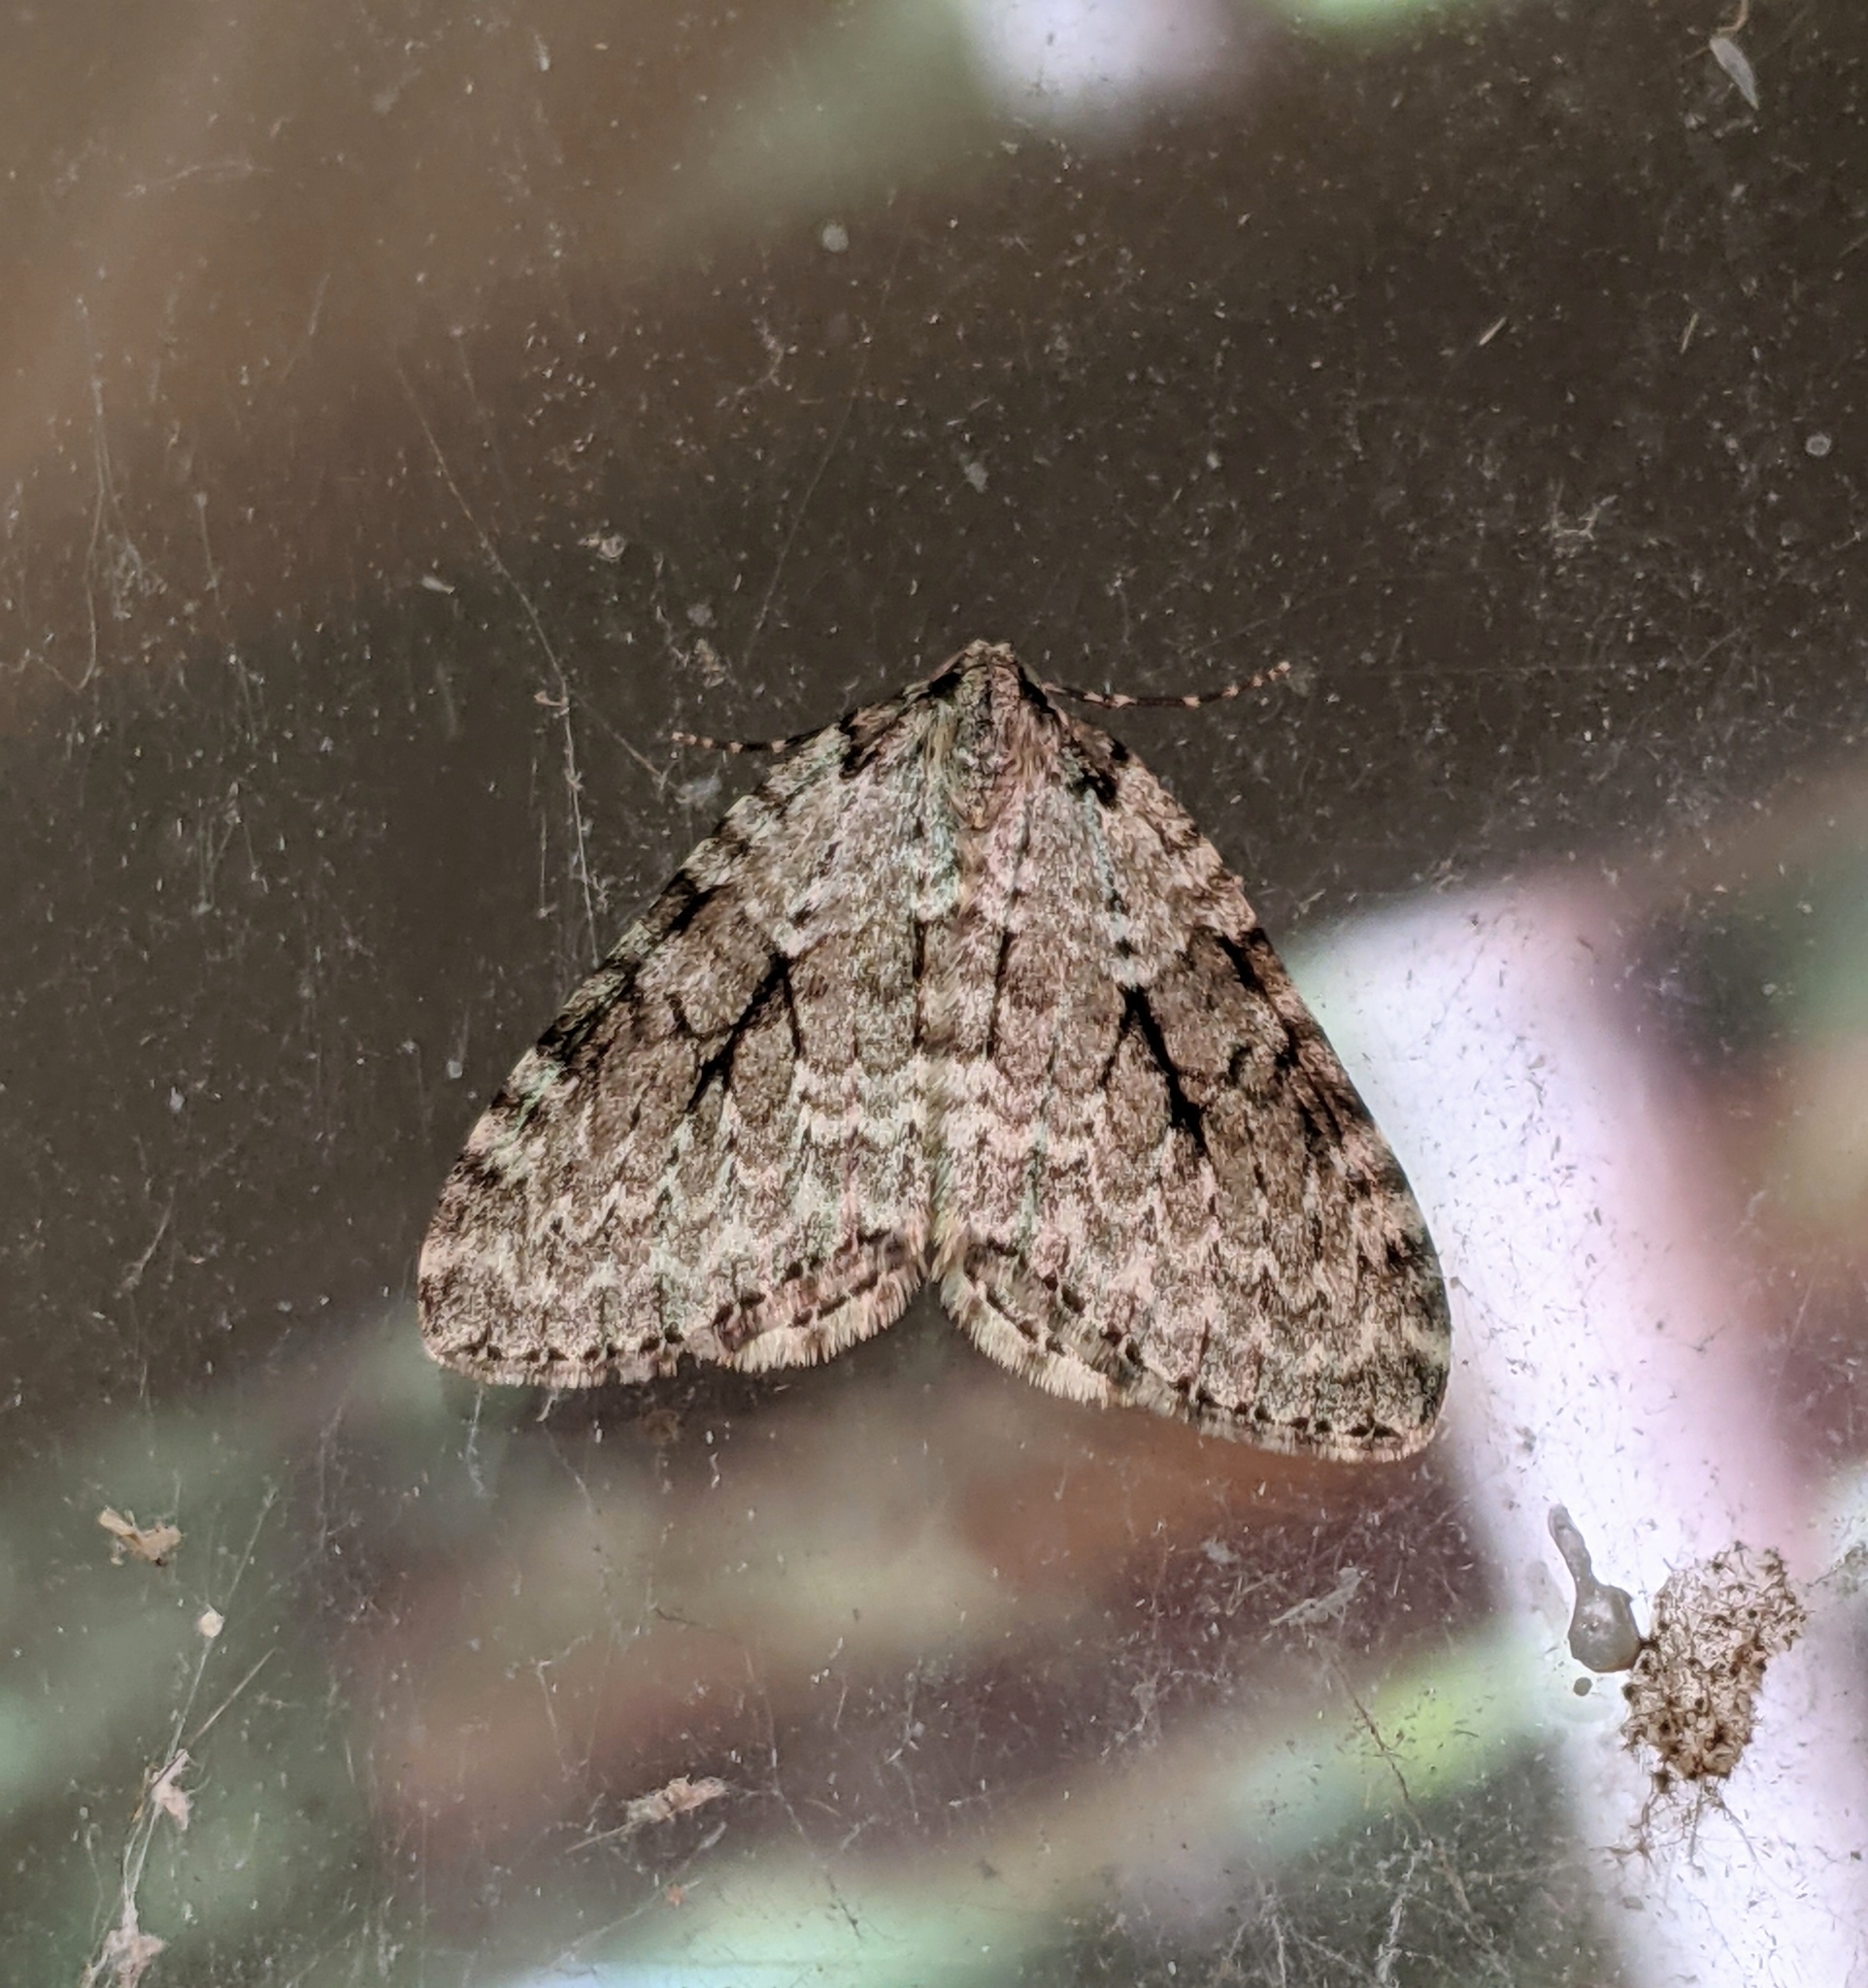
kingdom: Animalia
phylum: Arthropoda
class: Insecta
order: Lepidoptera
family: Geometridae
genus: Epirrita
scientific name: Epirrita autumnata
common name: Autumnal moth
